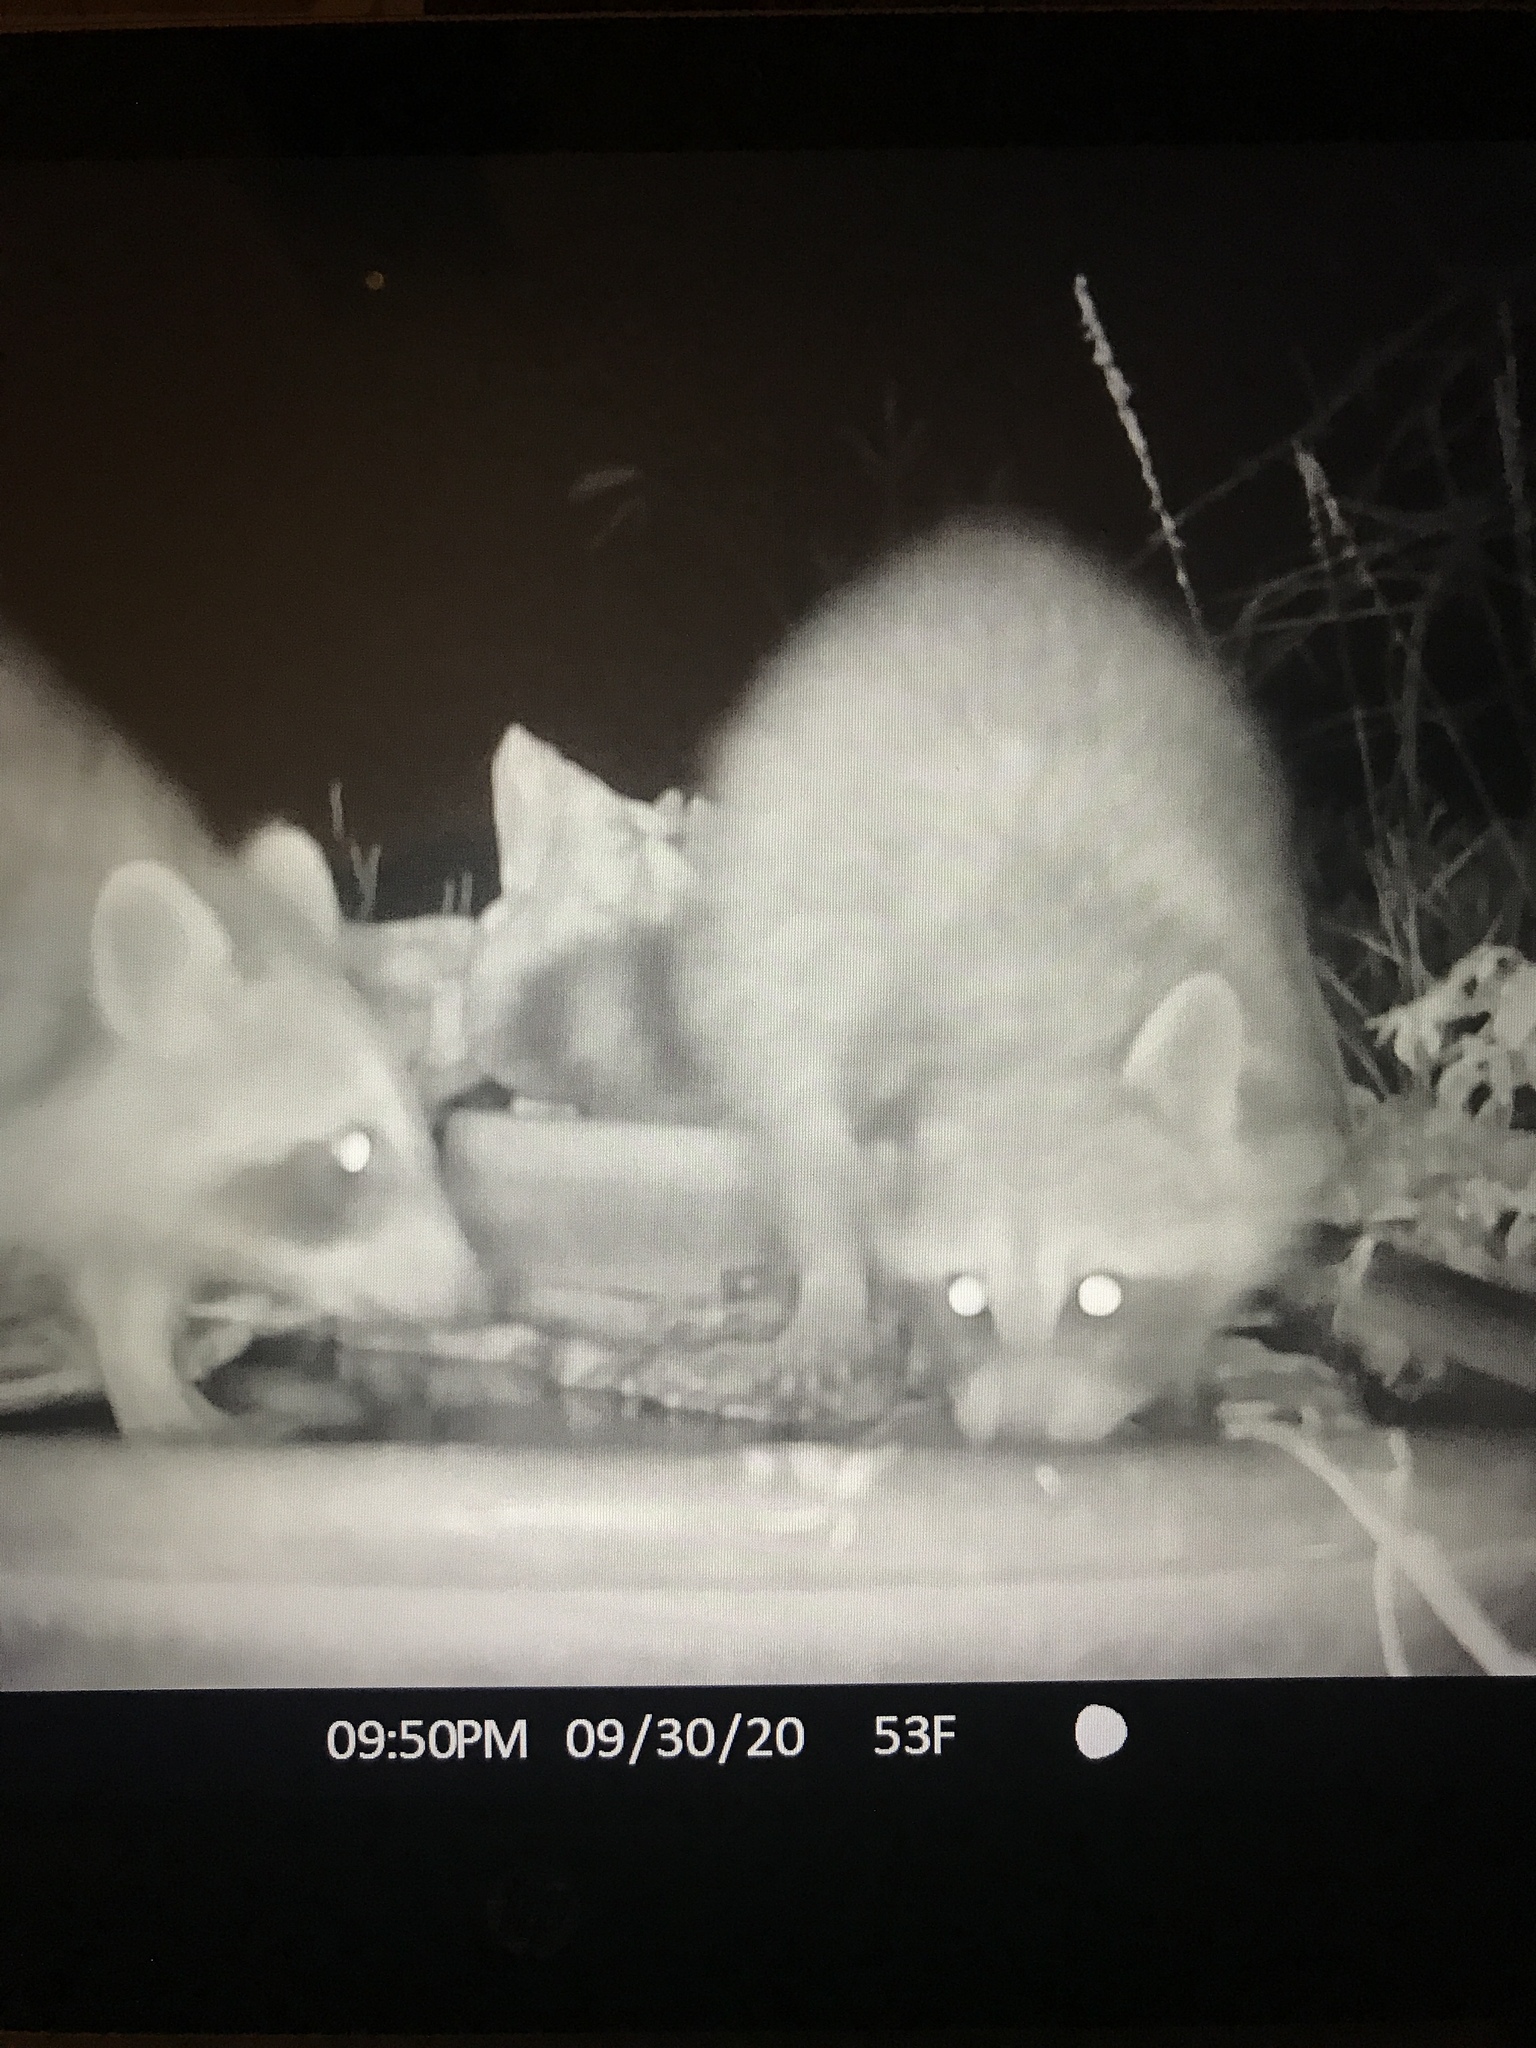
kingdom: Animalia
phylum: Chordata
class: Mammalia
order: Carnivora
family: Procyonidae
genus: Procyon
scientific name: Procyon lotor
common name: Raccoon
